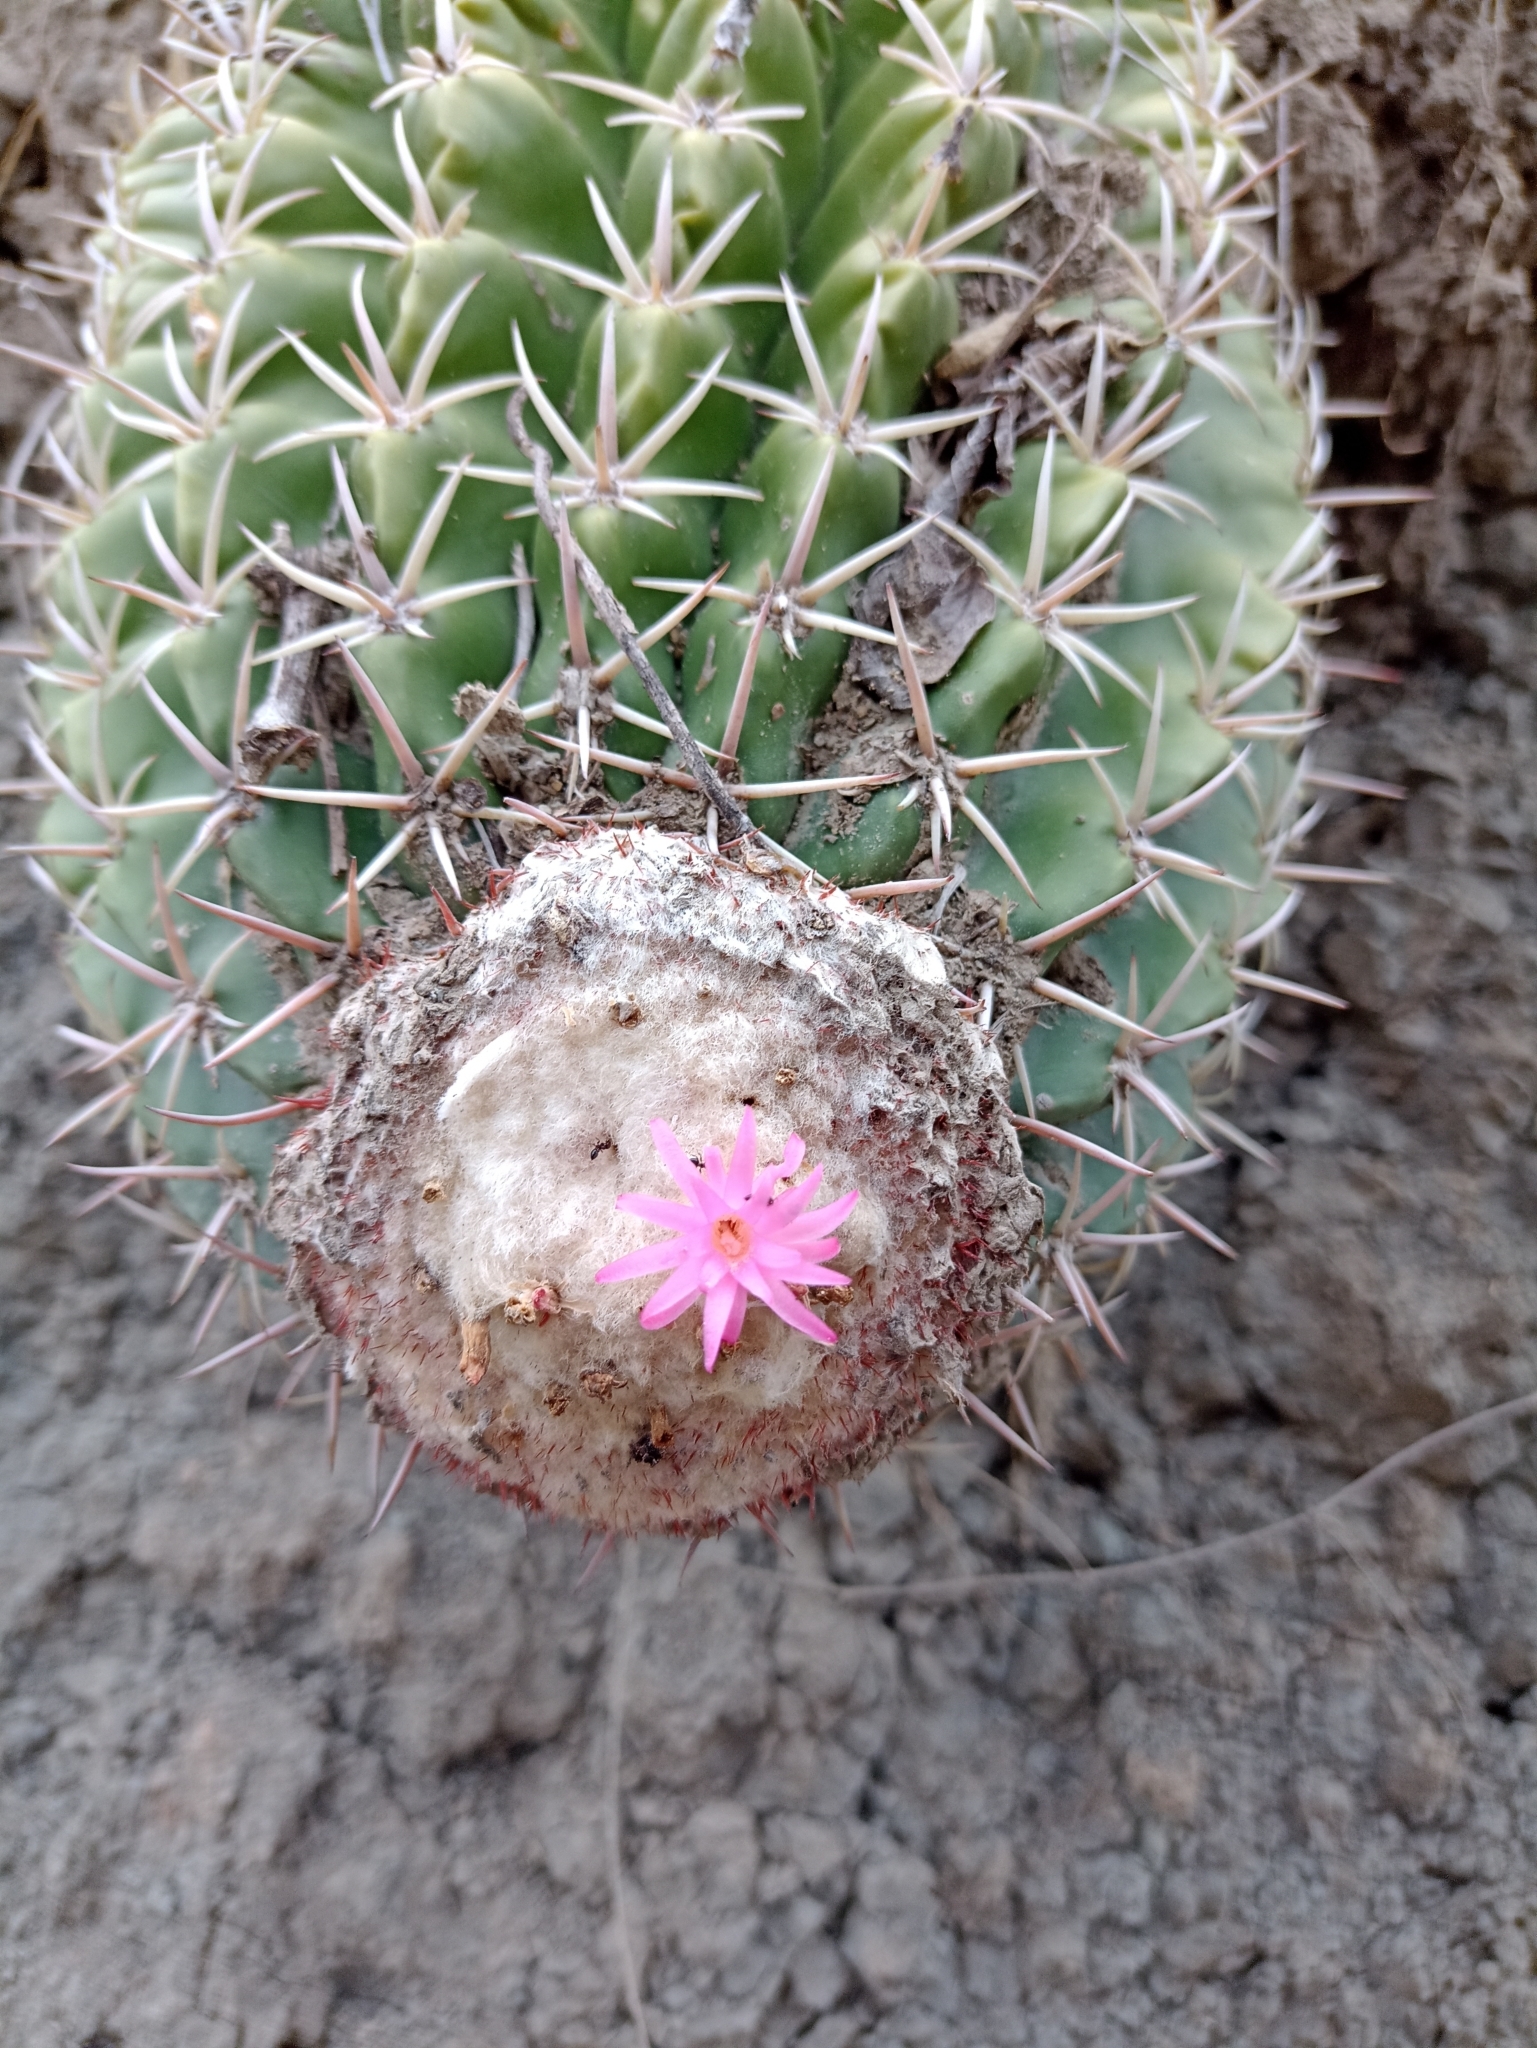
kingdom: Plantae
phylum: Tracheophyta
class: Magnoliopsida
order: Caryophyllales
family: Cactaceae
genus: Melocactus
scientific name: Melocactus curvispinus
